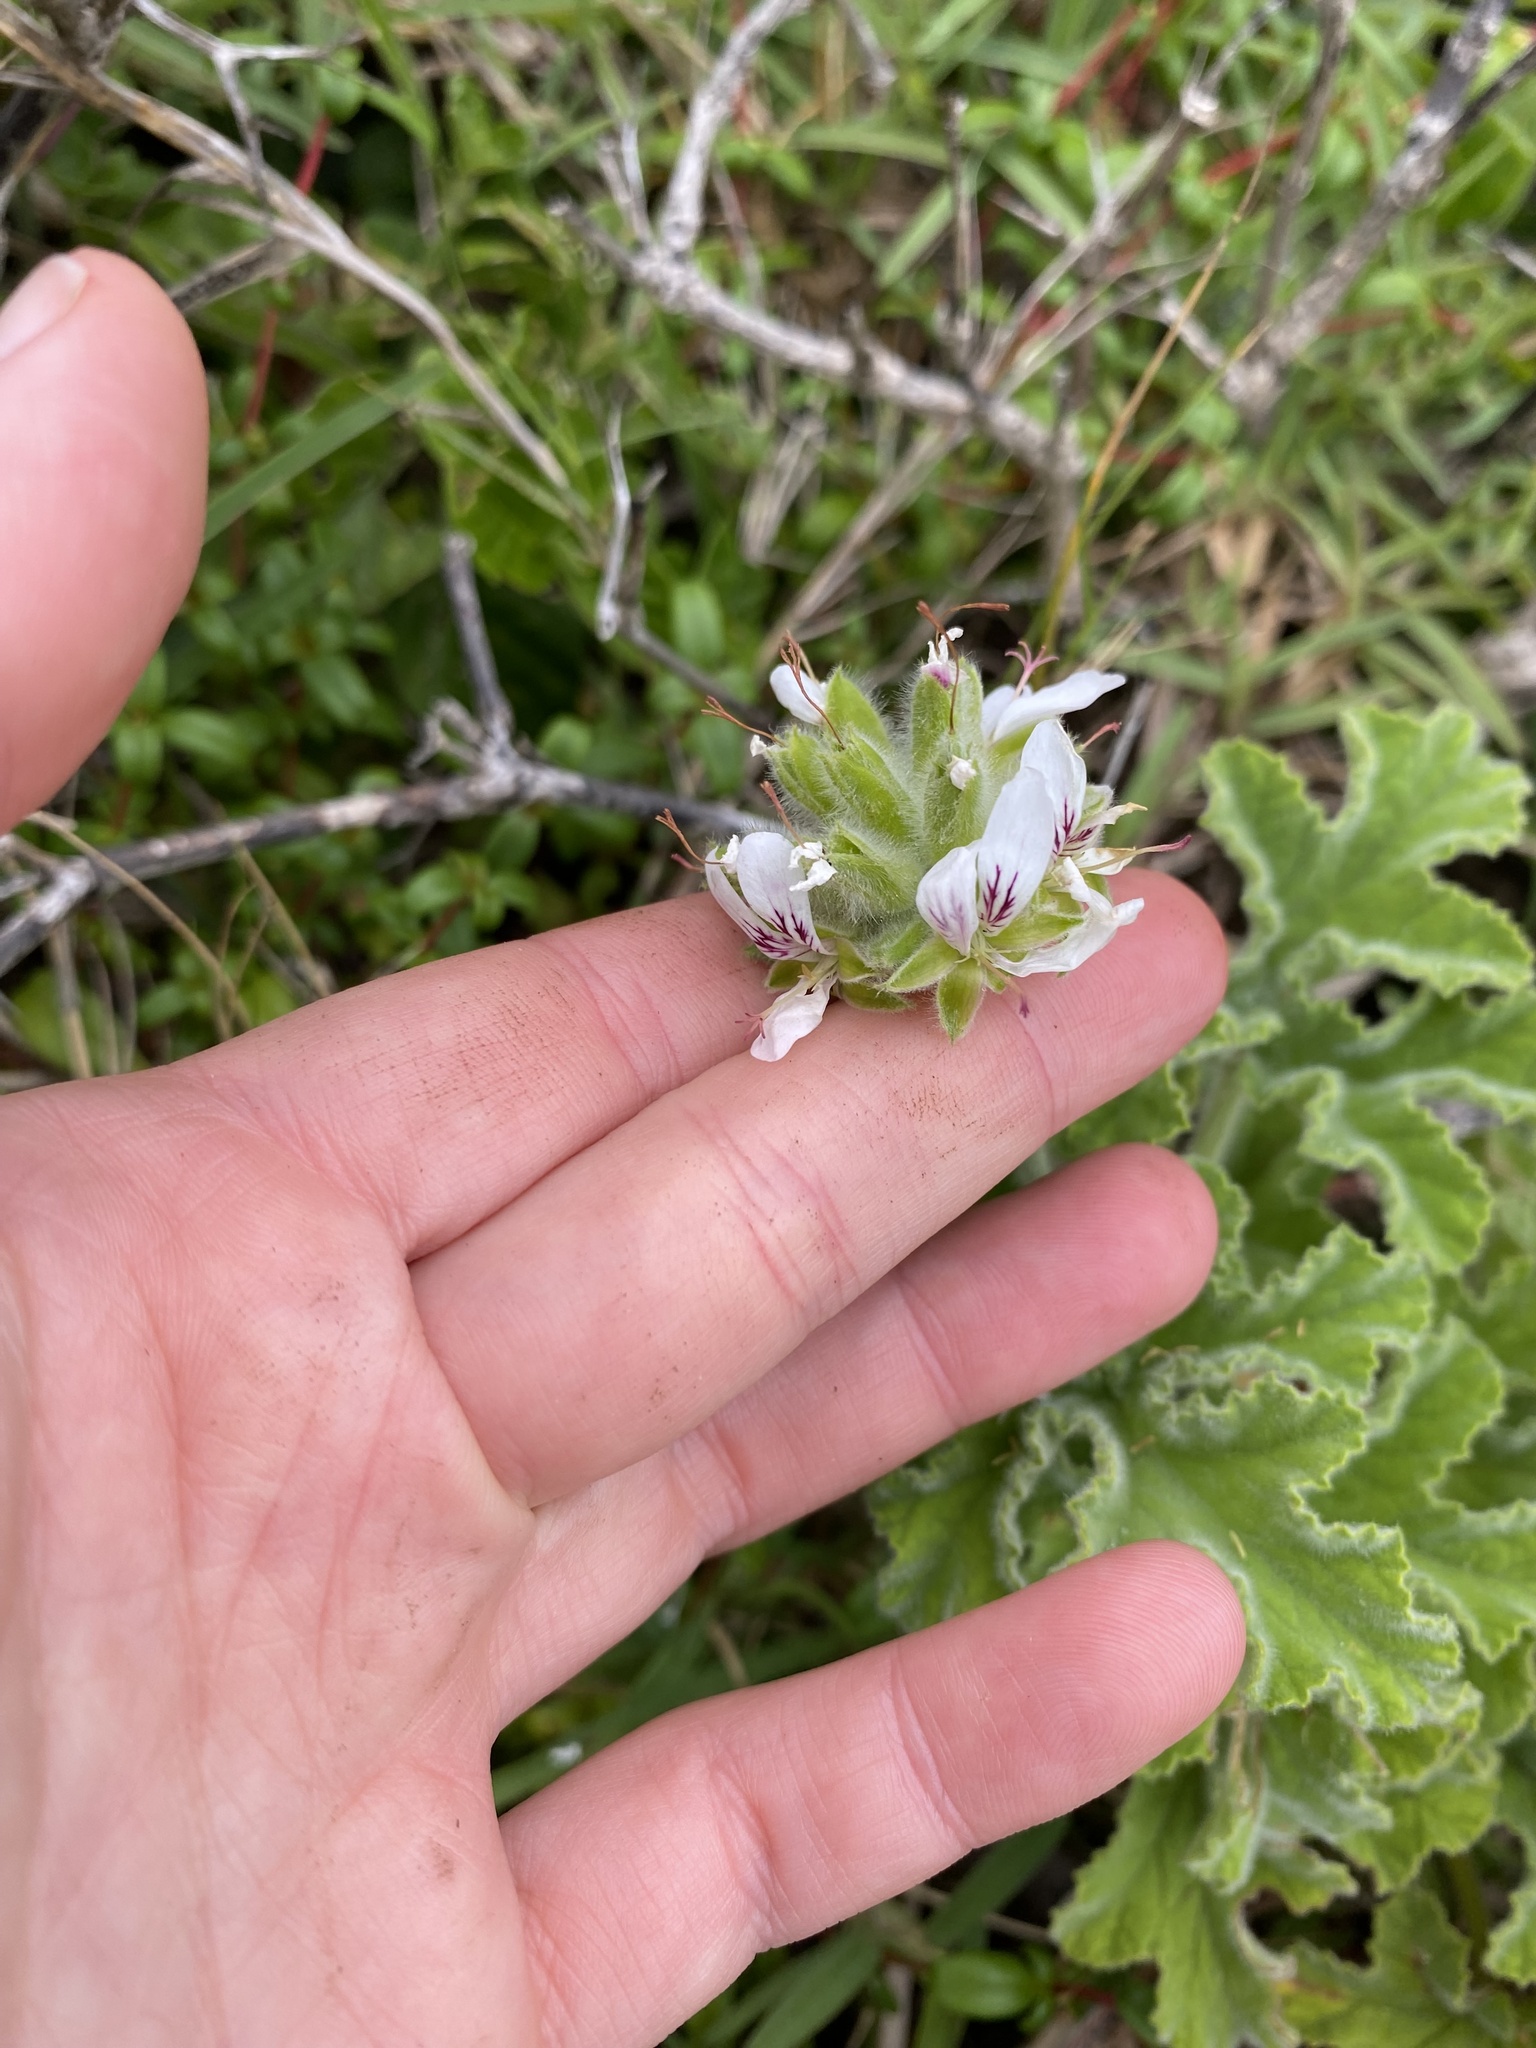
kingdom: Plantae
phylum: Tracheophyta
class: Magnoliopsida
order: Geraniales
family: Geraniaceae
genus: Pelargonium
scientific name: Pelargonium capitatum
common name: Rose scented geranium
